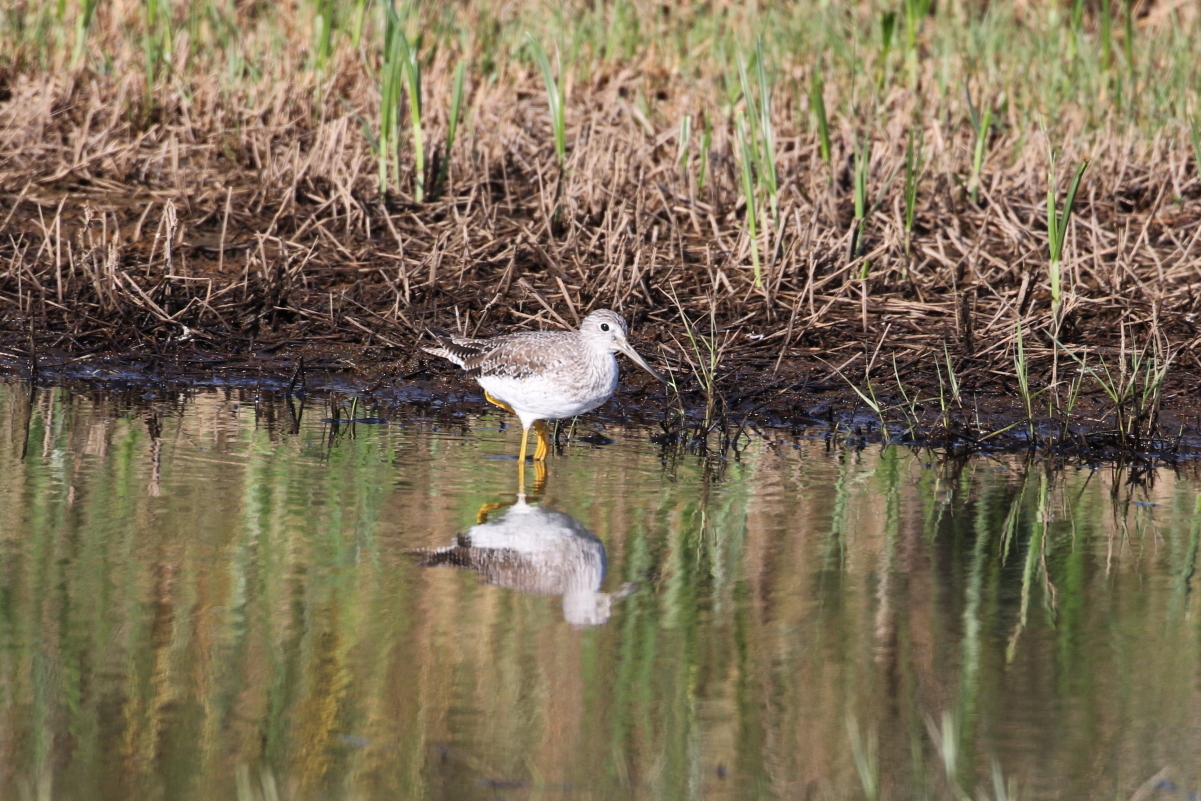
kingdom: Animalia
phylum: Chordata
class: Aves
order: Charadriiformes
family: Scolopacidae
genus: Tringa
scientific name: Tringa melanoleuca
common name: Greater yellowlegs
